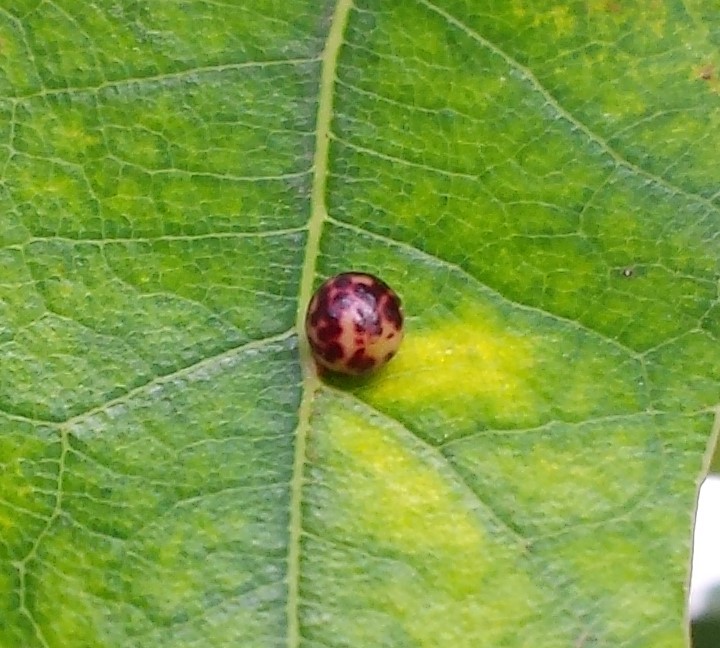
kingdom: Animalia
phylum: Arthropoda
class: Insecta
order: Hymenoptera
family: Cynipidae
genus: Zopheroteras
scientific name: Zopheroteras
